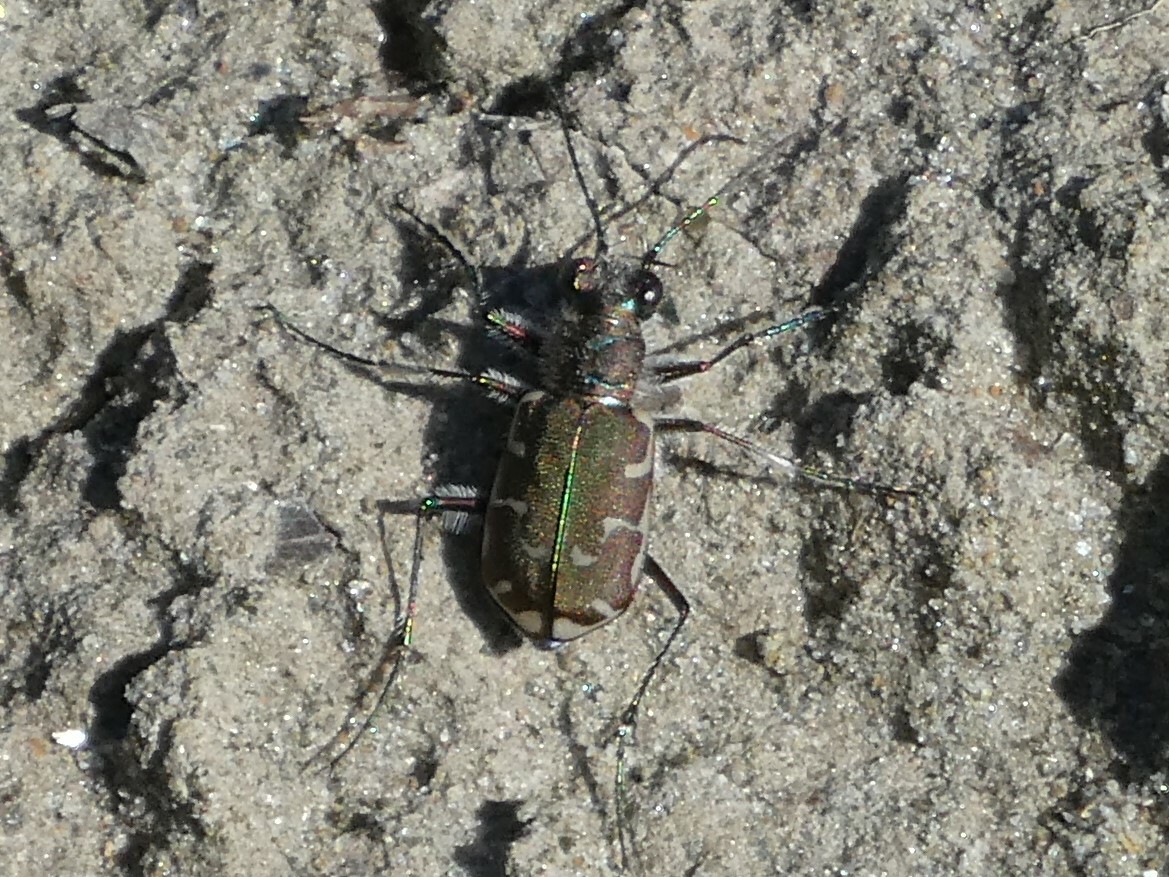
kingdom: Animalia
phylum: Arthropoda
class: Insecta
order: Coleoptera
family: Carabidae
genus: Cicindela
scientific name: Cicindela repanda
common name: Bronzed tiger beetle
